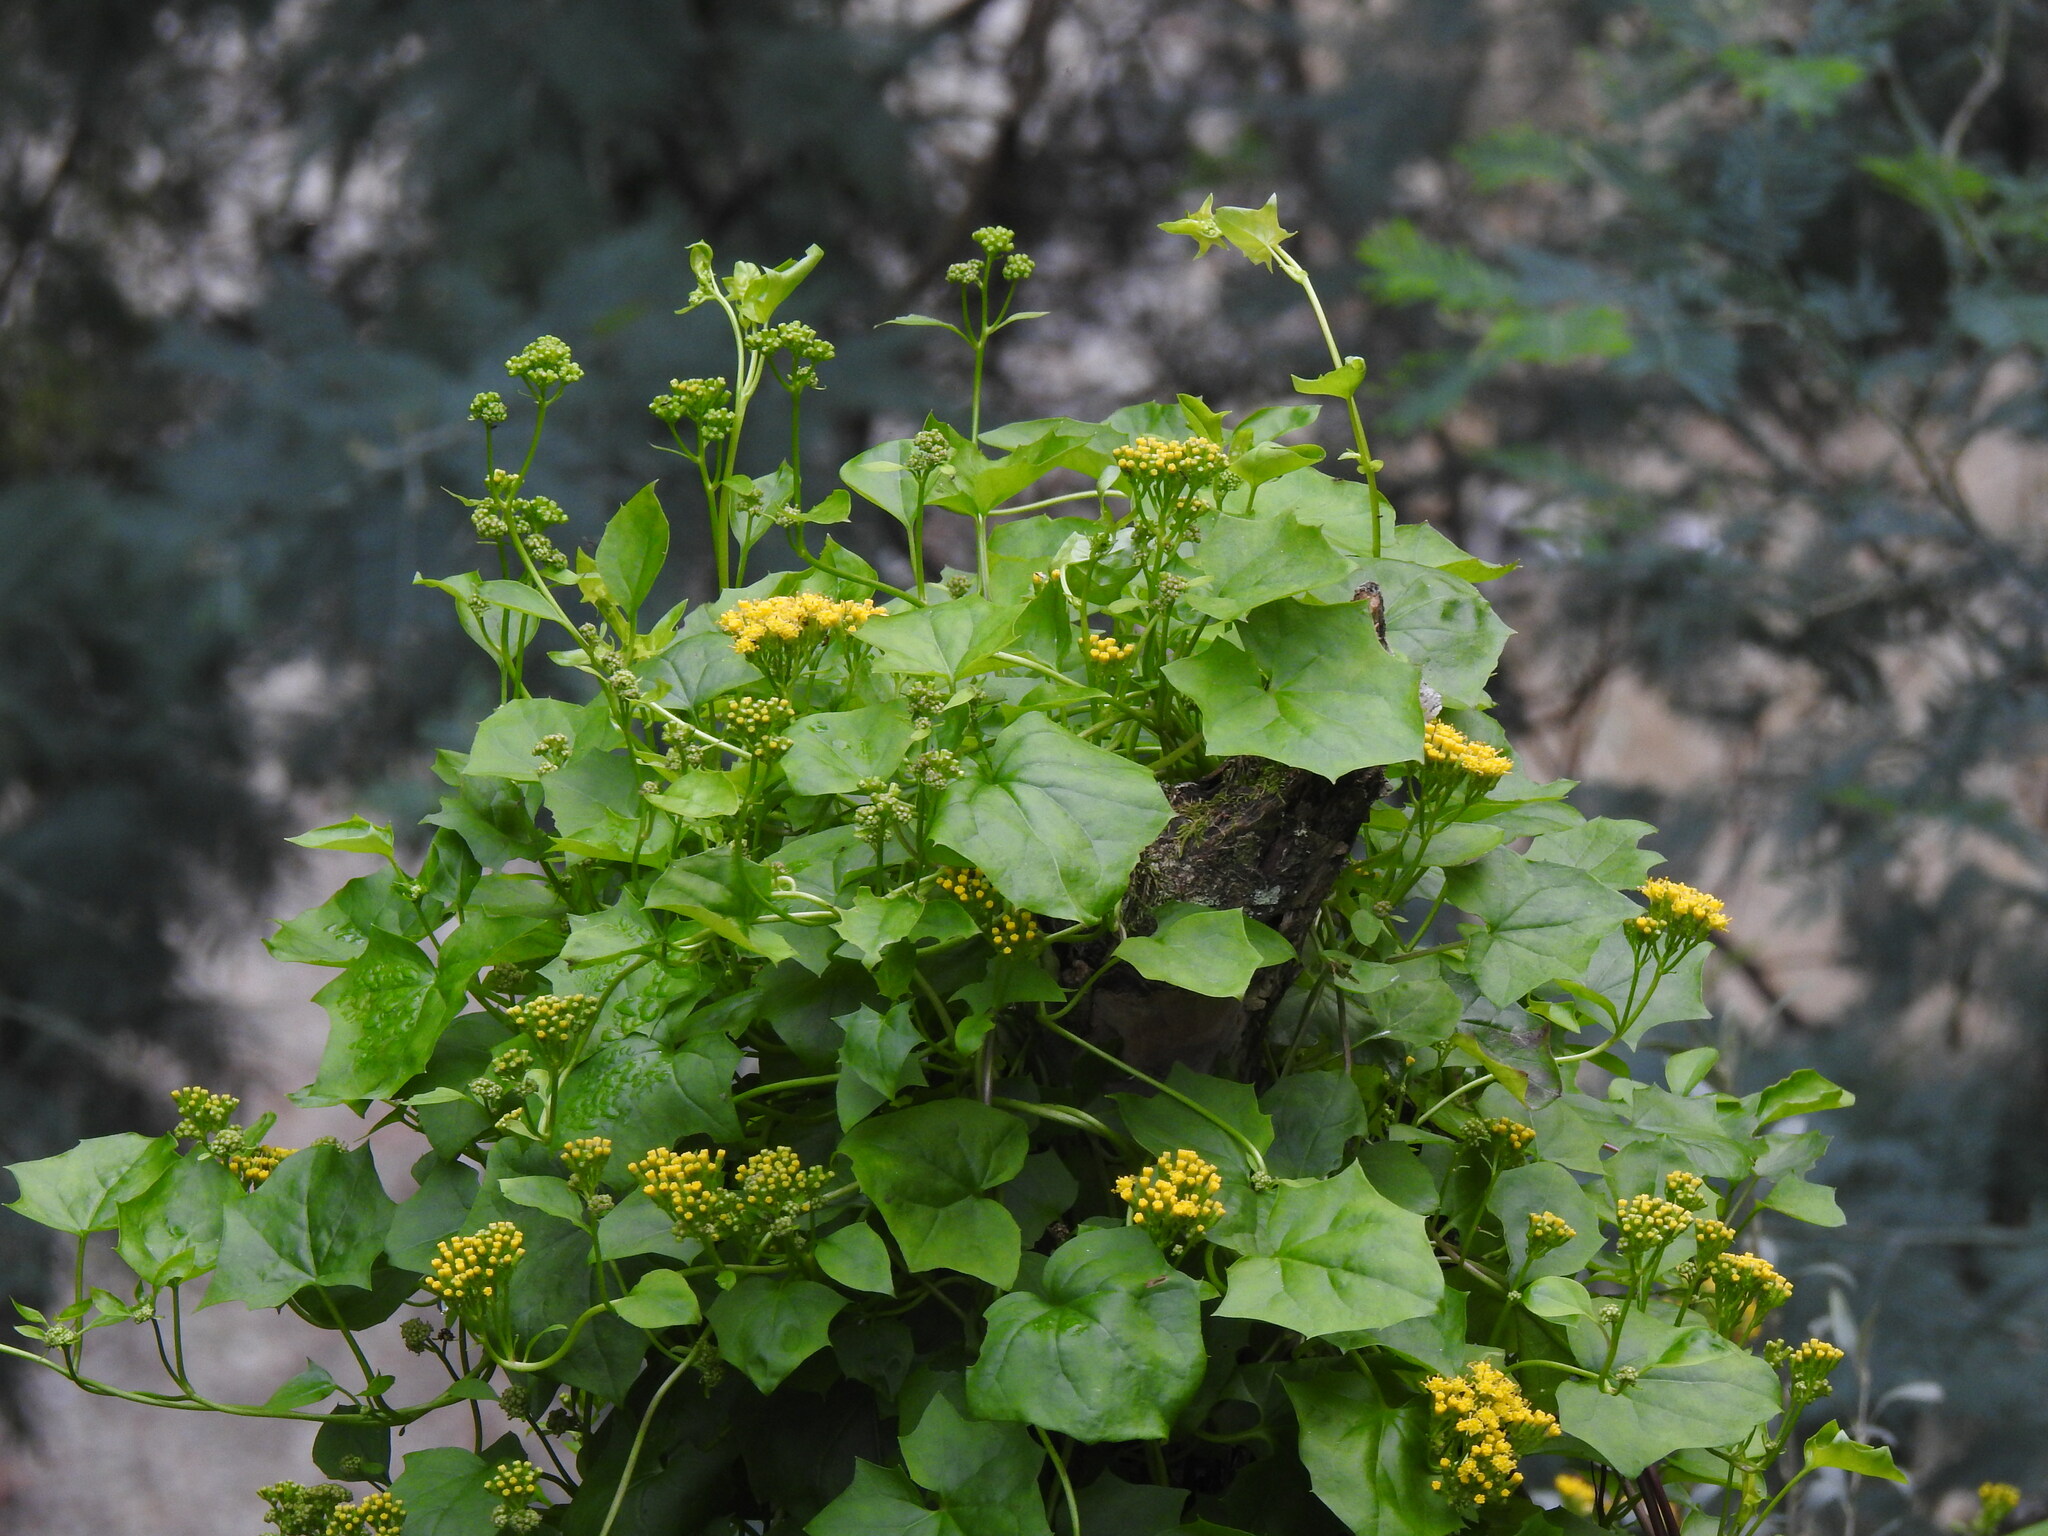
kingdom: Plantae
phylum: Tracheophyta
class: Magnoliopsida
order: Asterales
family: Asteraceae
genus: Delairea
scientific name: Delairea odorata
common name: Cape-ivy
